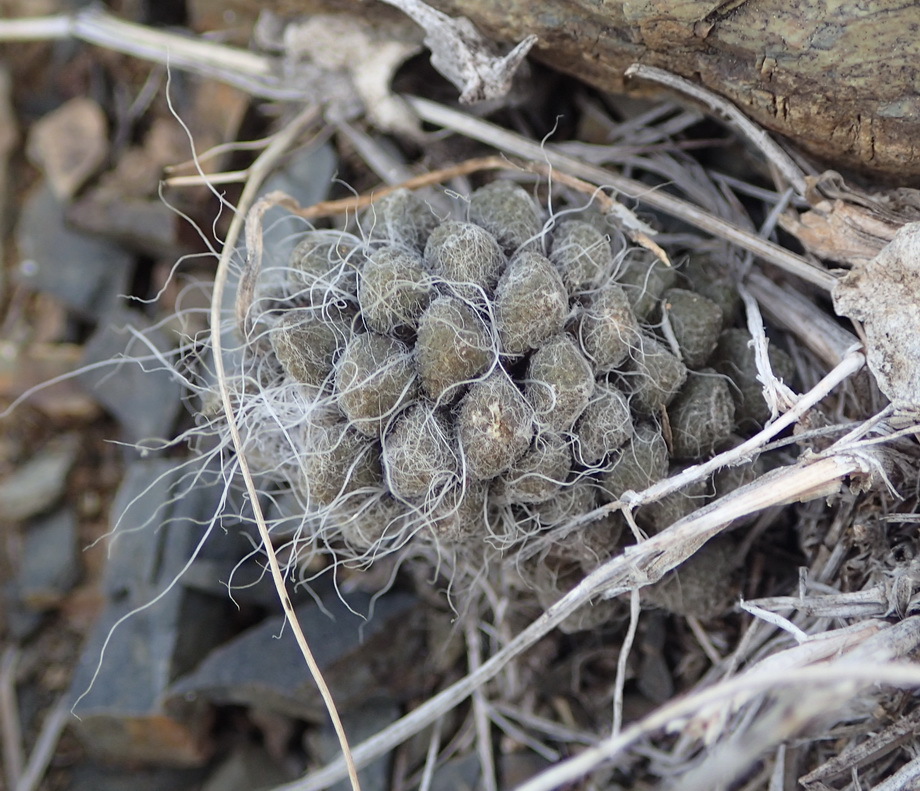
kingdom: Plantae
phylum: Tracheophyta
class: Magnoliopsida
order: Caryophyllales
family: Anacampserotaceae
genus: Anacampseros
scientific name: Anacampseros albidiflora
